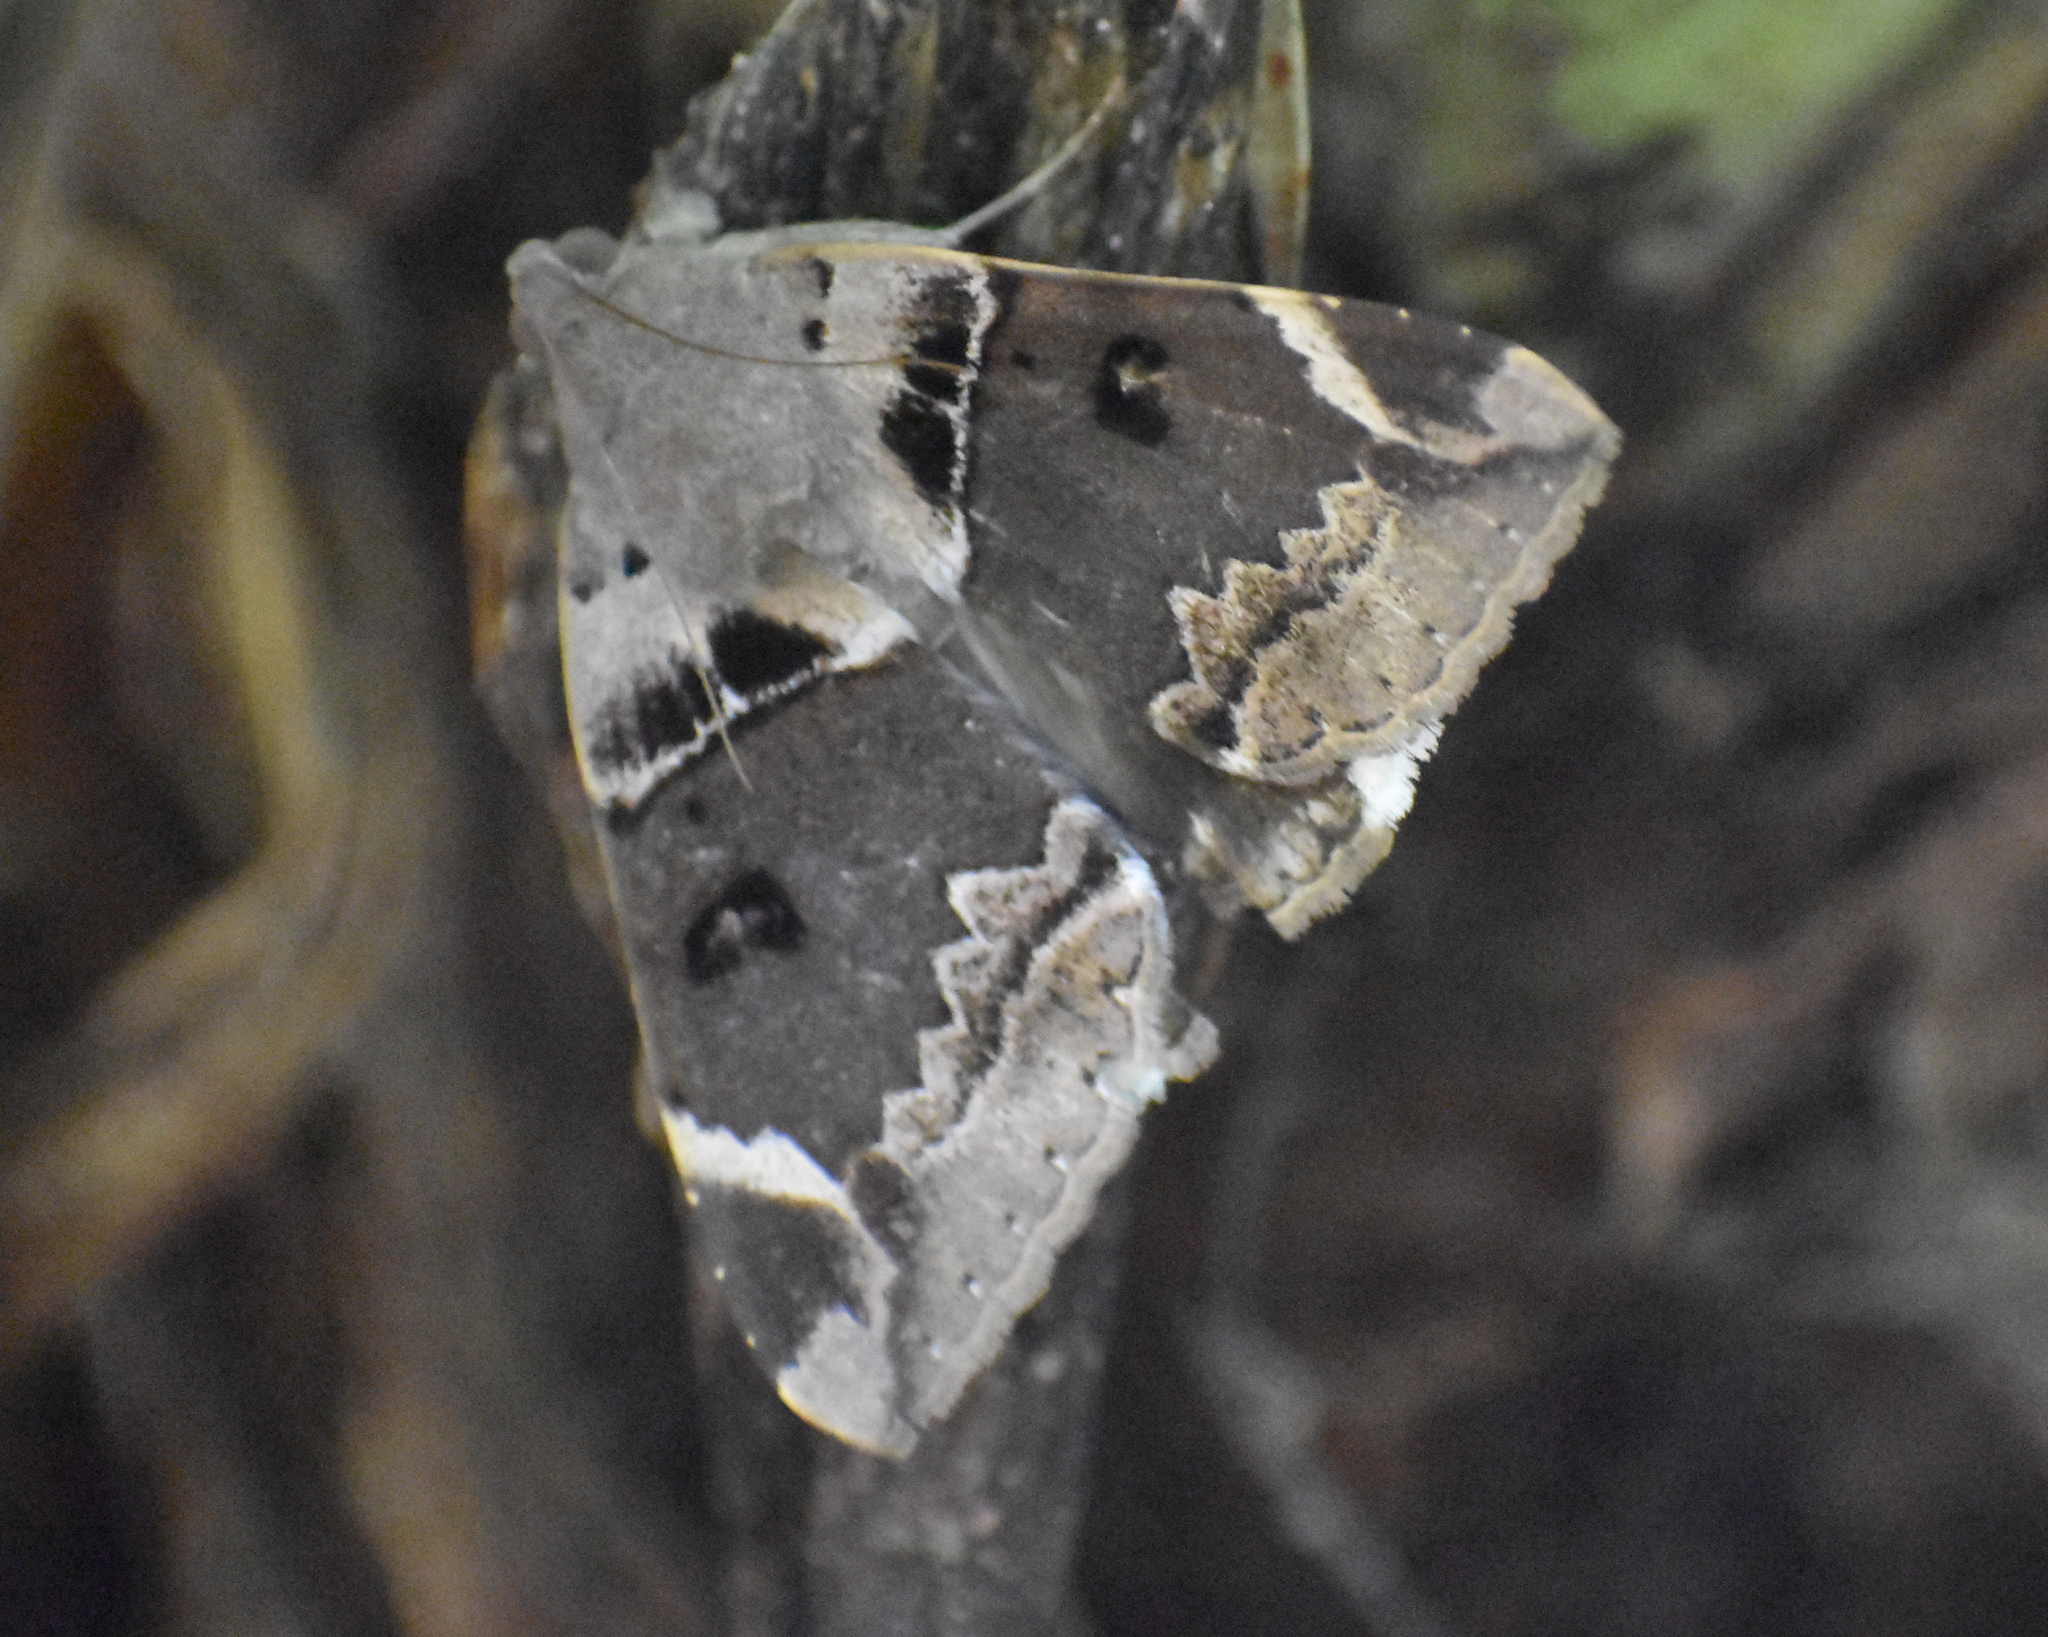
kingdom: Animalia
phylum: Arthropoda
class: Insecta
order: Lepidoptera
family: Erebidae
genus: Achaea
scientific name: Achaea lienardi
